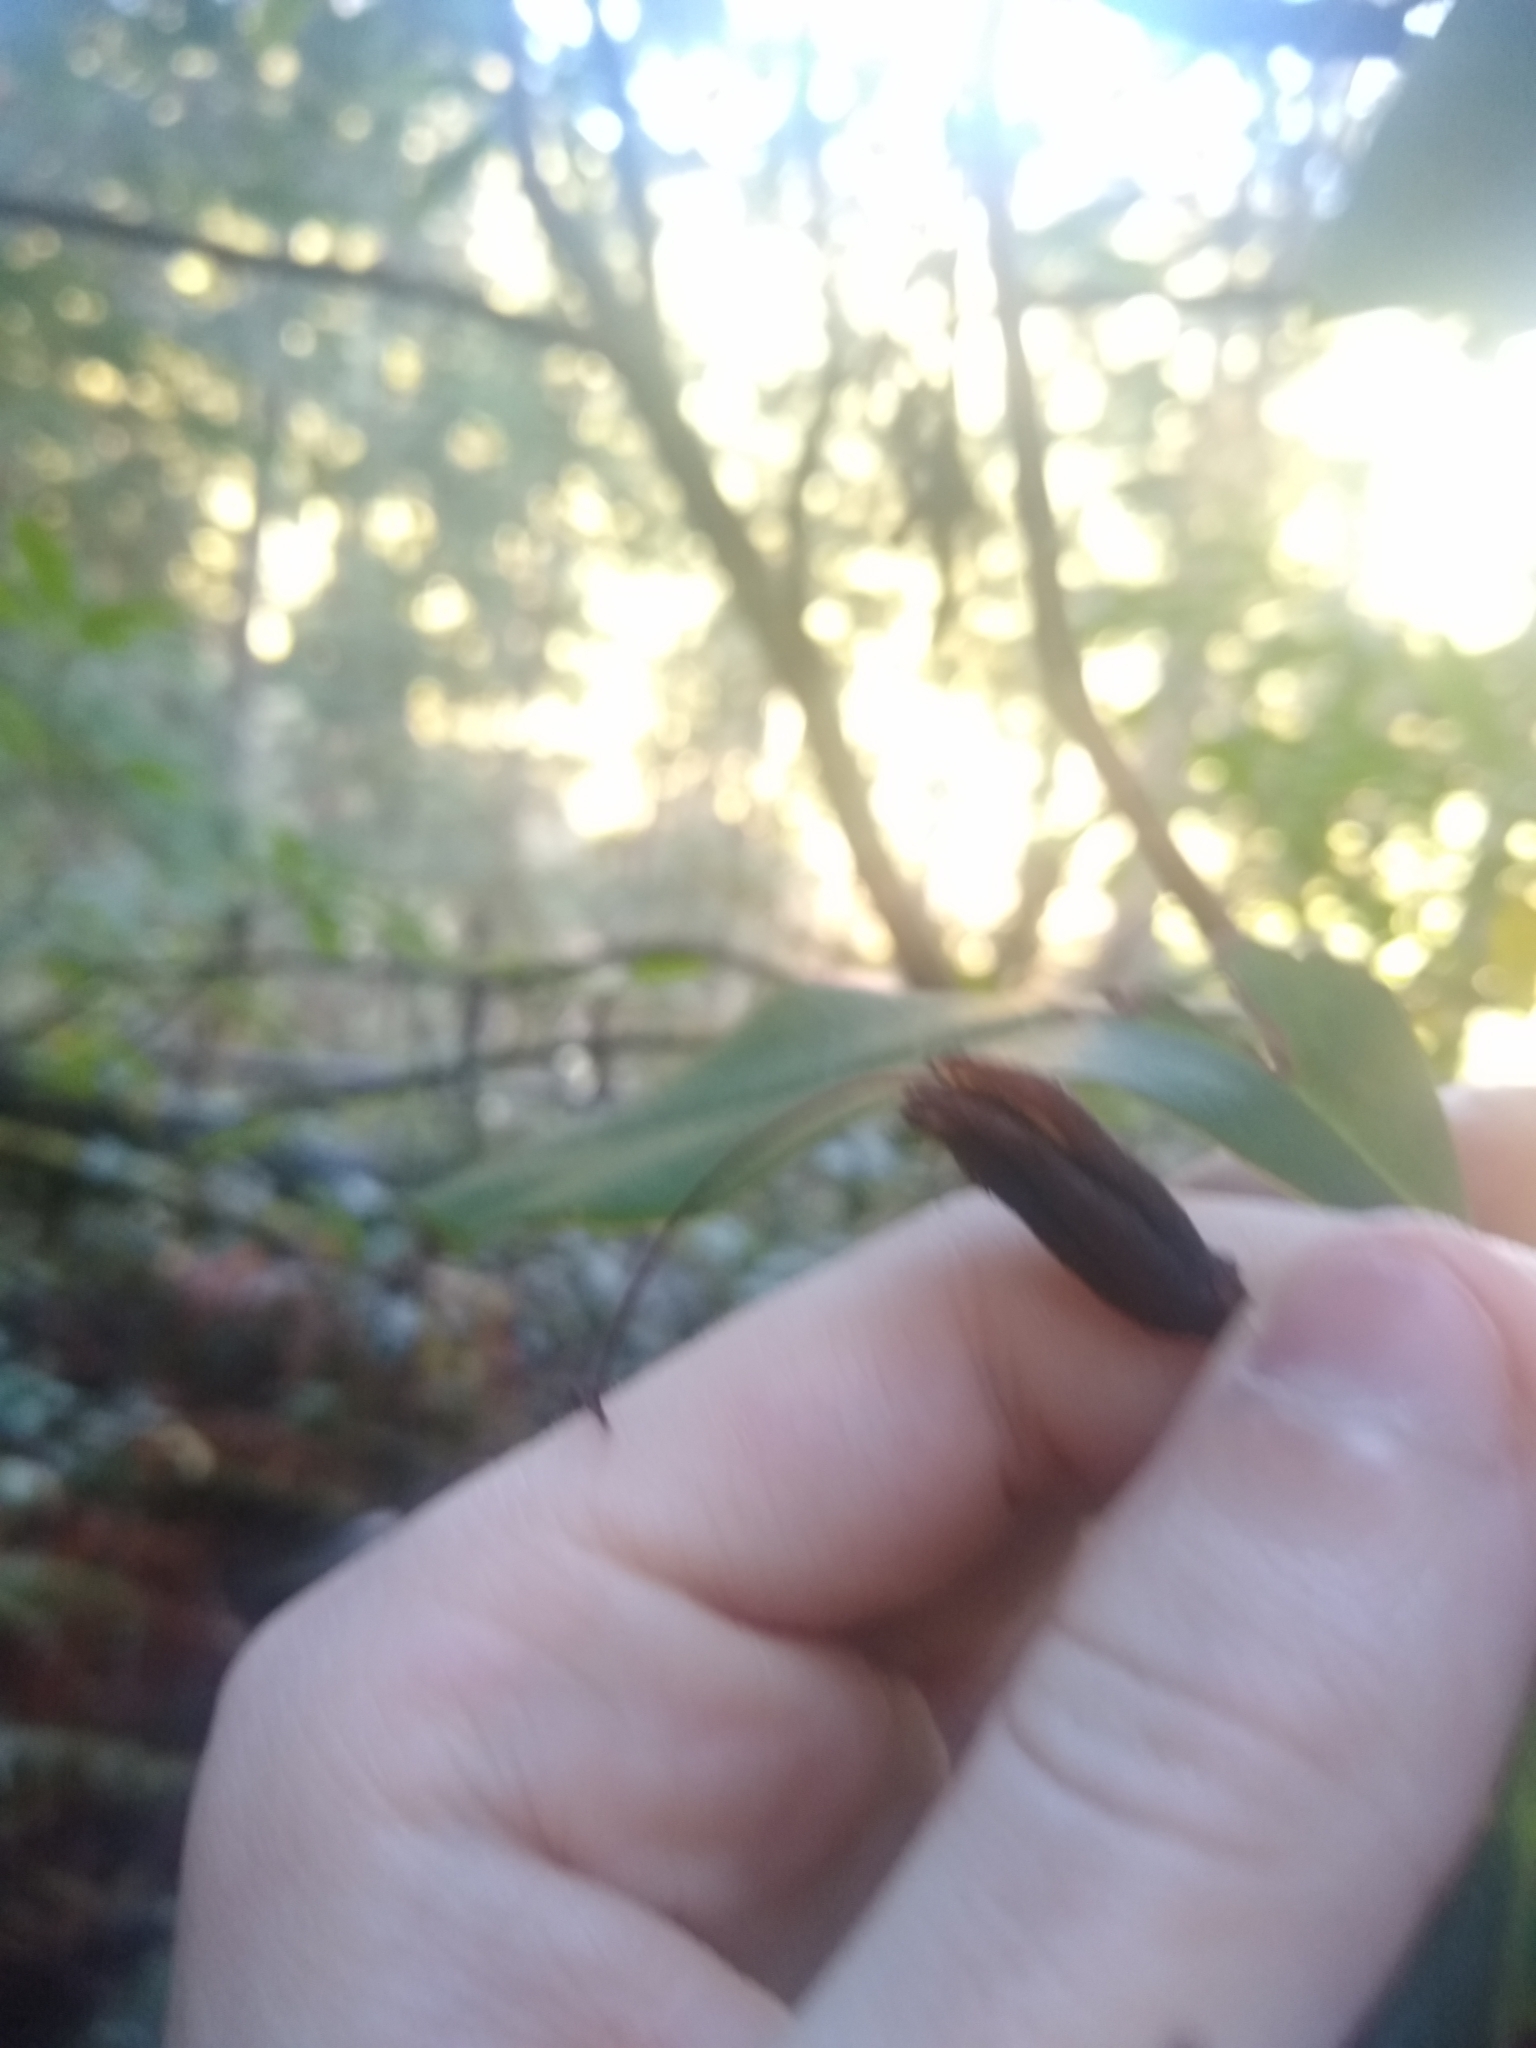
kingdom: Plantae
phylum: Tracheophyta
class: Magnoliopsida
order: Ericales
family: Ericaceae
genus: Rhododendron
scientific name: Rhododendron macrophyllum
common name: California rose bay
